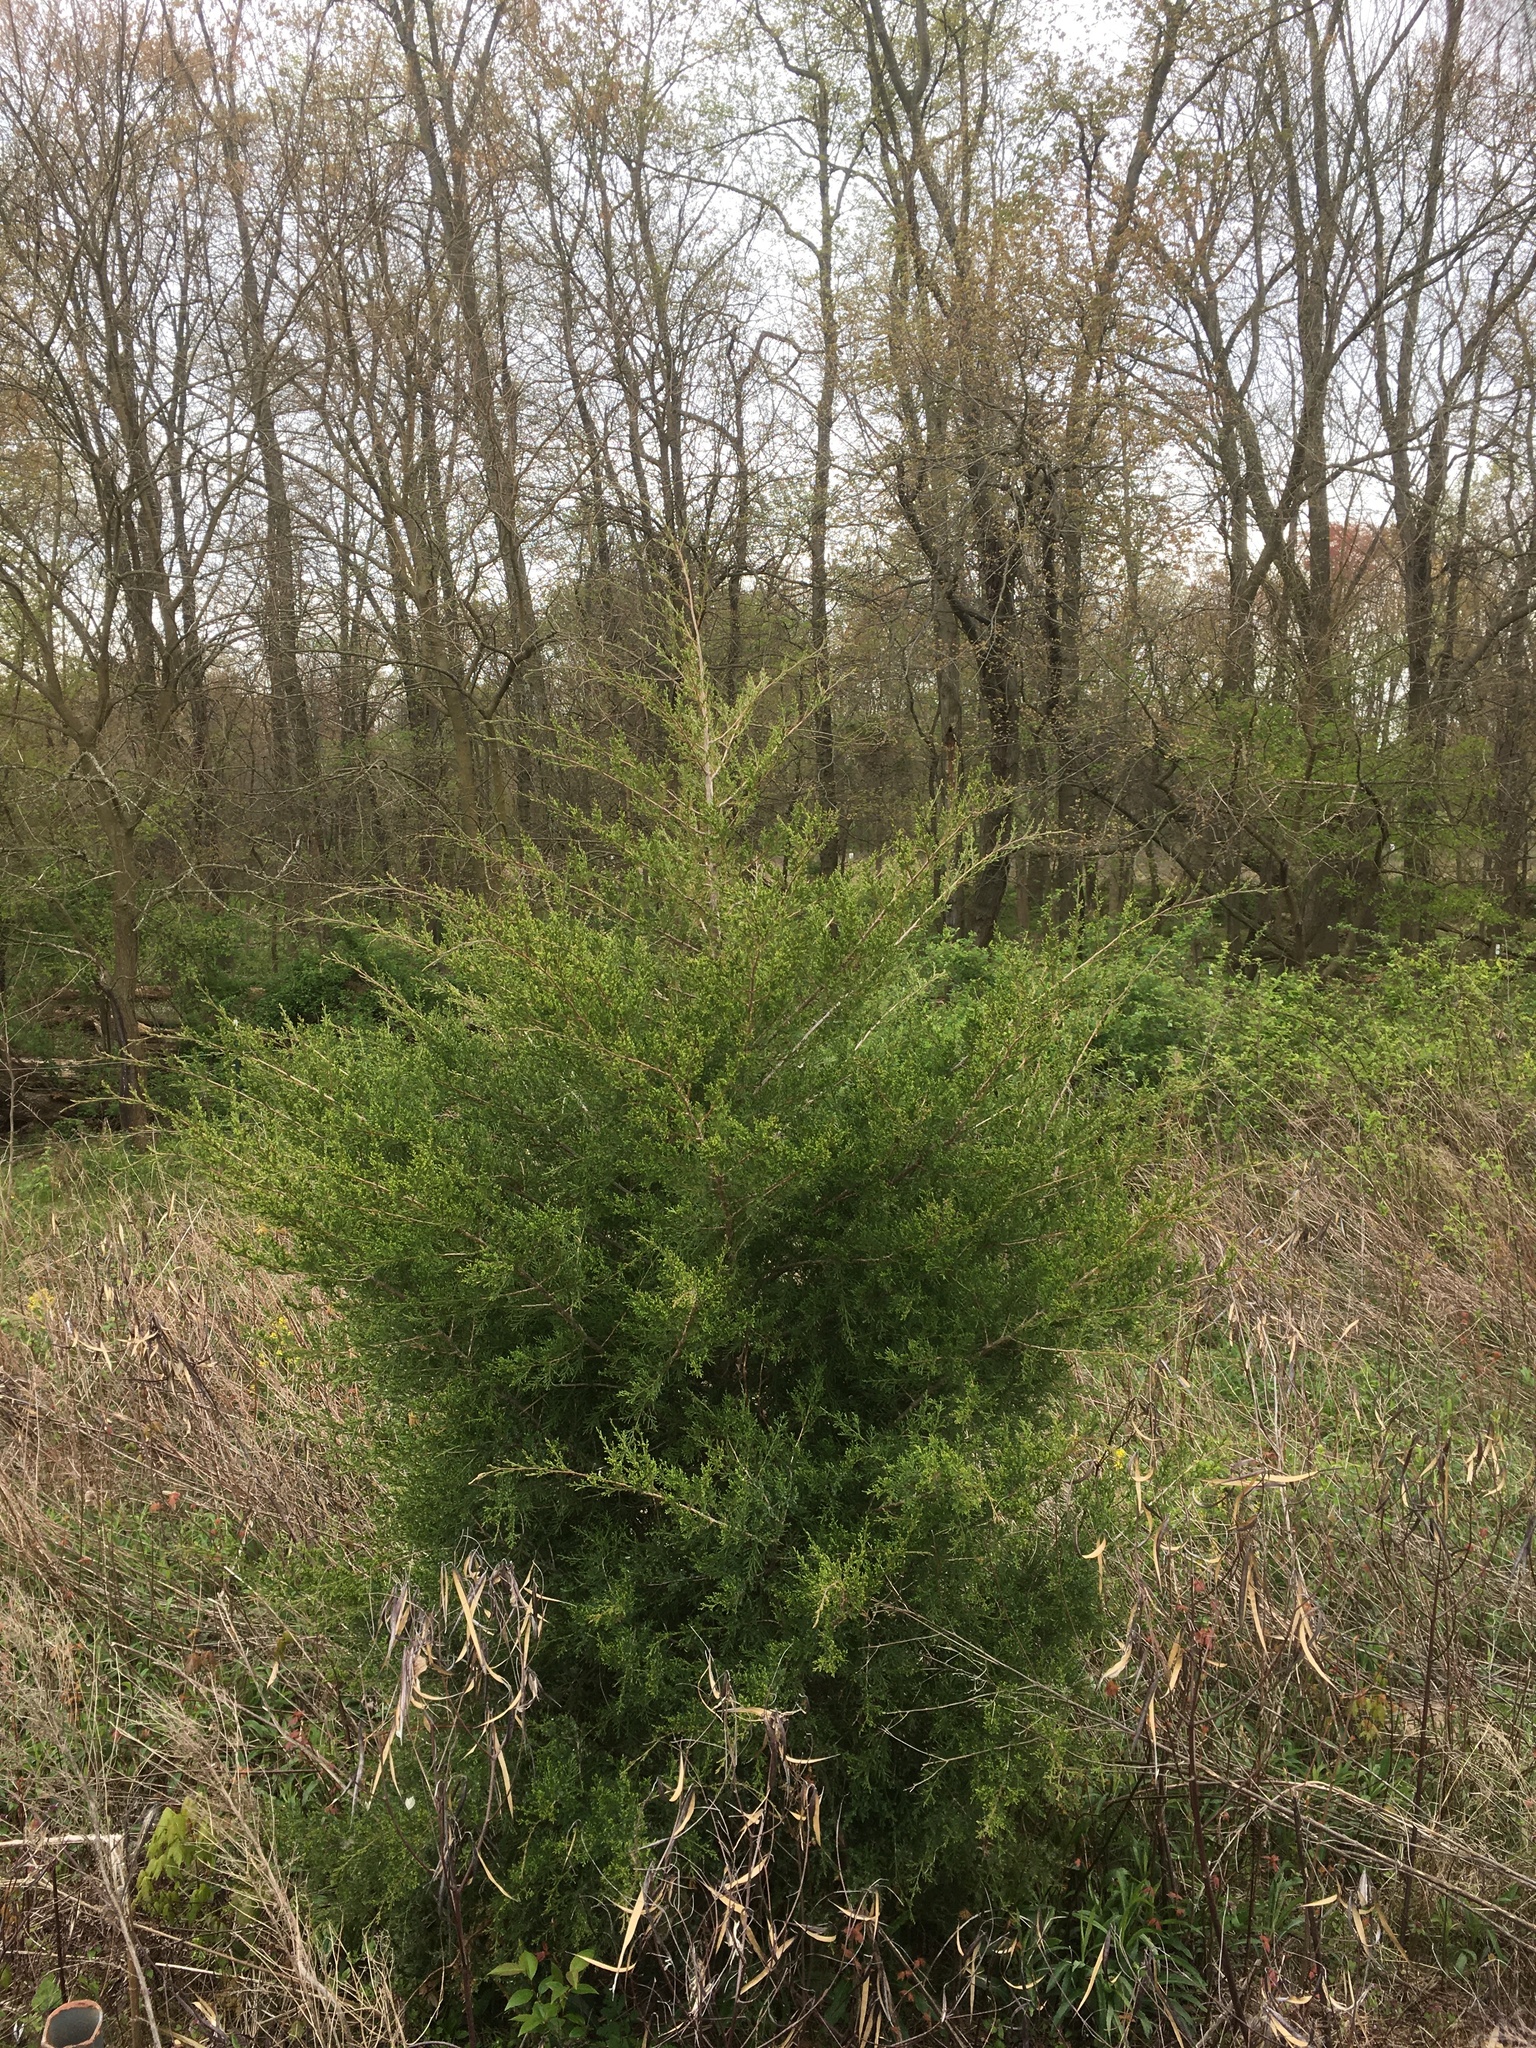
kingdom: Plantae
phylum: Tracheophyta
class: Pinopsida
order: Pinales
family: Cupressaceae
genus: Juniperus
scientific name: Juniperus virginiana
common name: Red juniper
